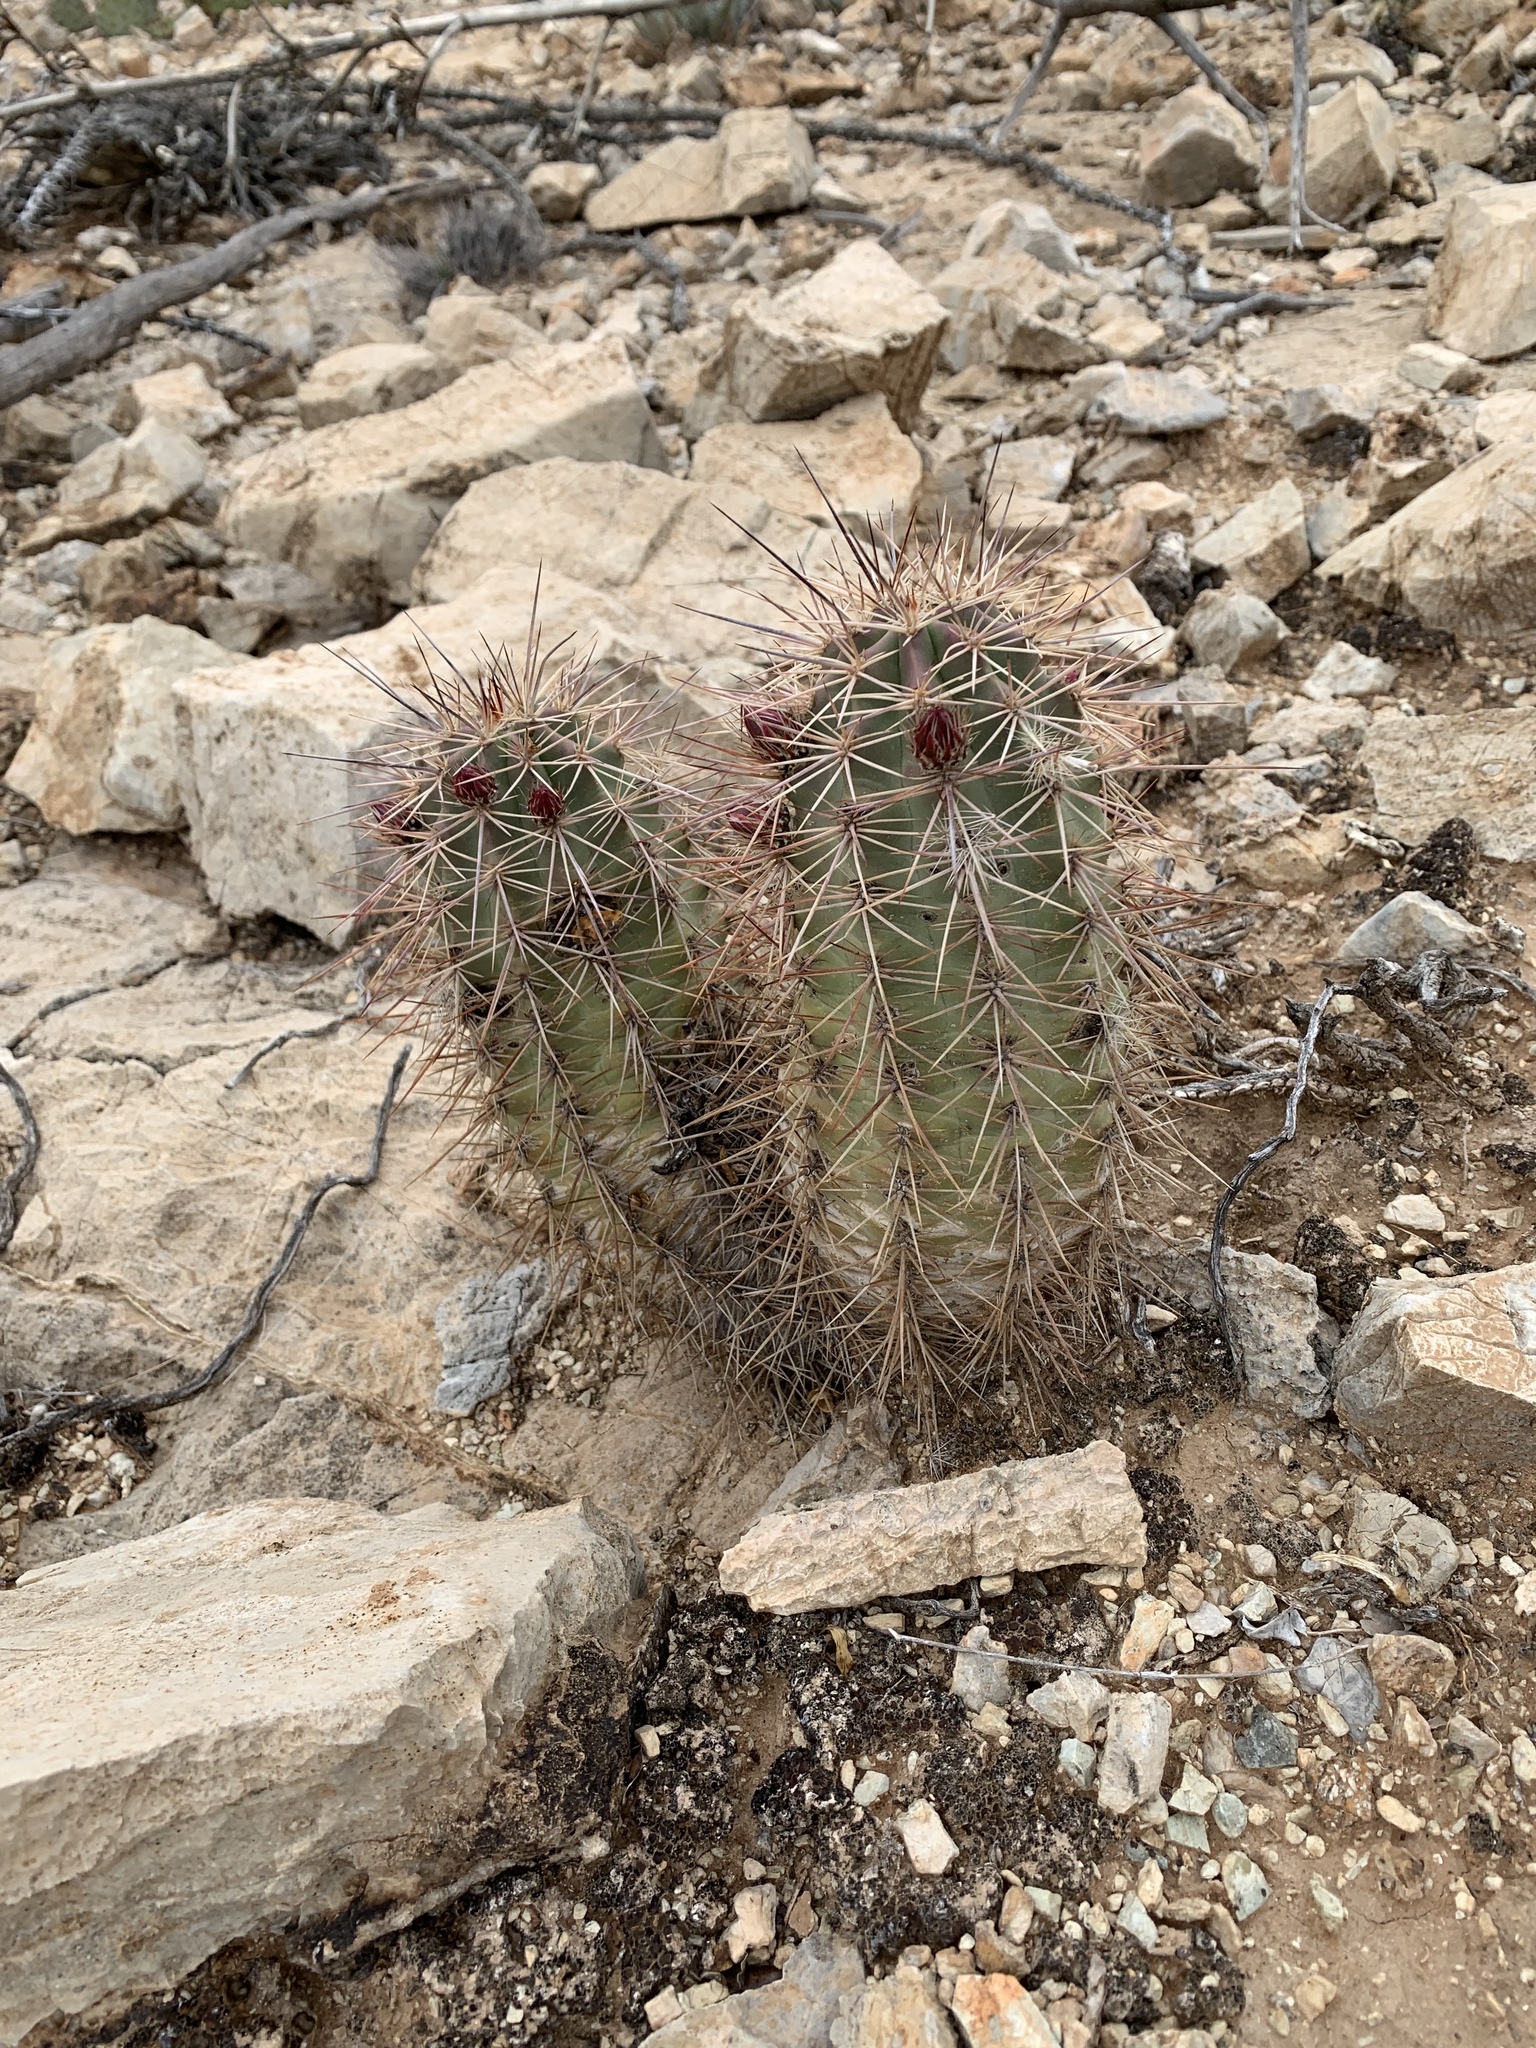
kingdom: Plantae
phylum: Tracheophyta
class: Magnoliopsida
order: Caryophyllales
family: Cactaceae
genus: Echinocereus
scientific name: Echinocereus coccineus
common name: Scarlet hedgehog cactus
